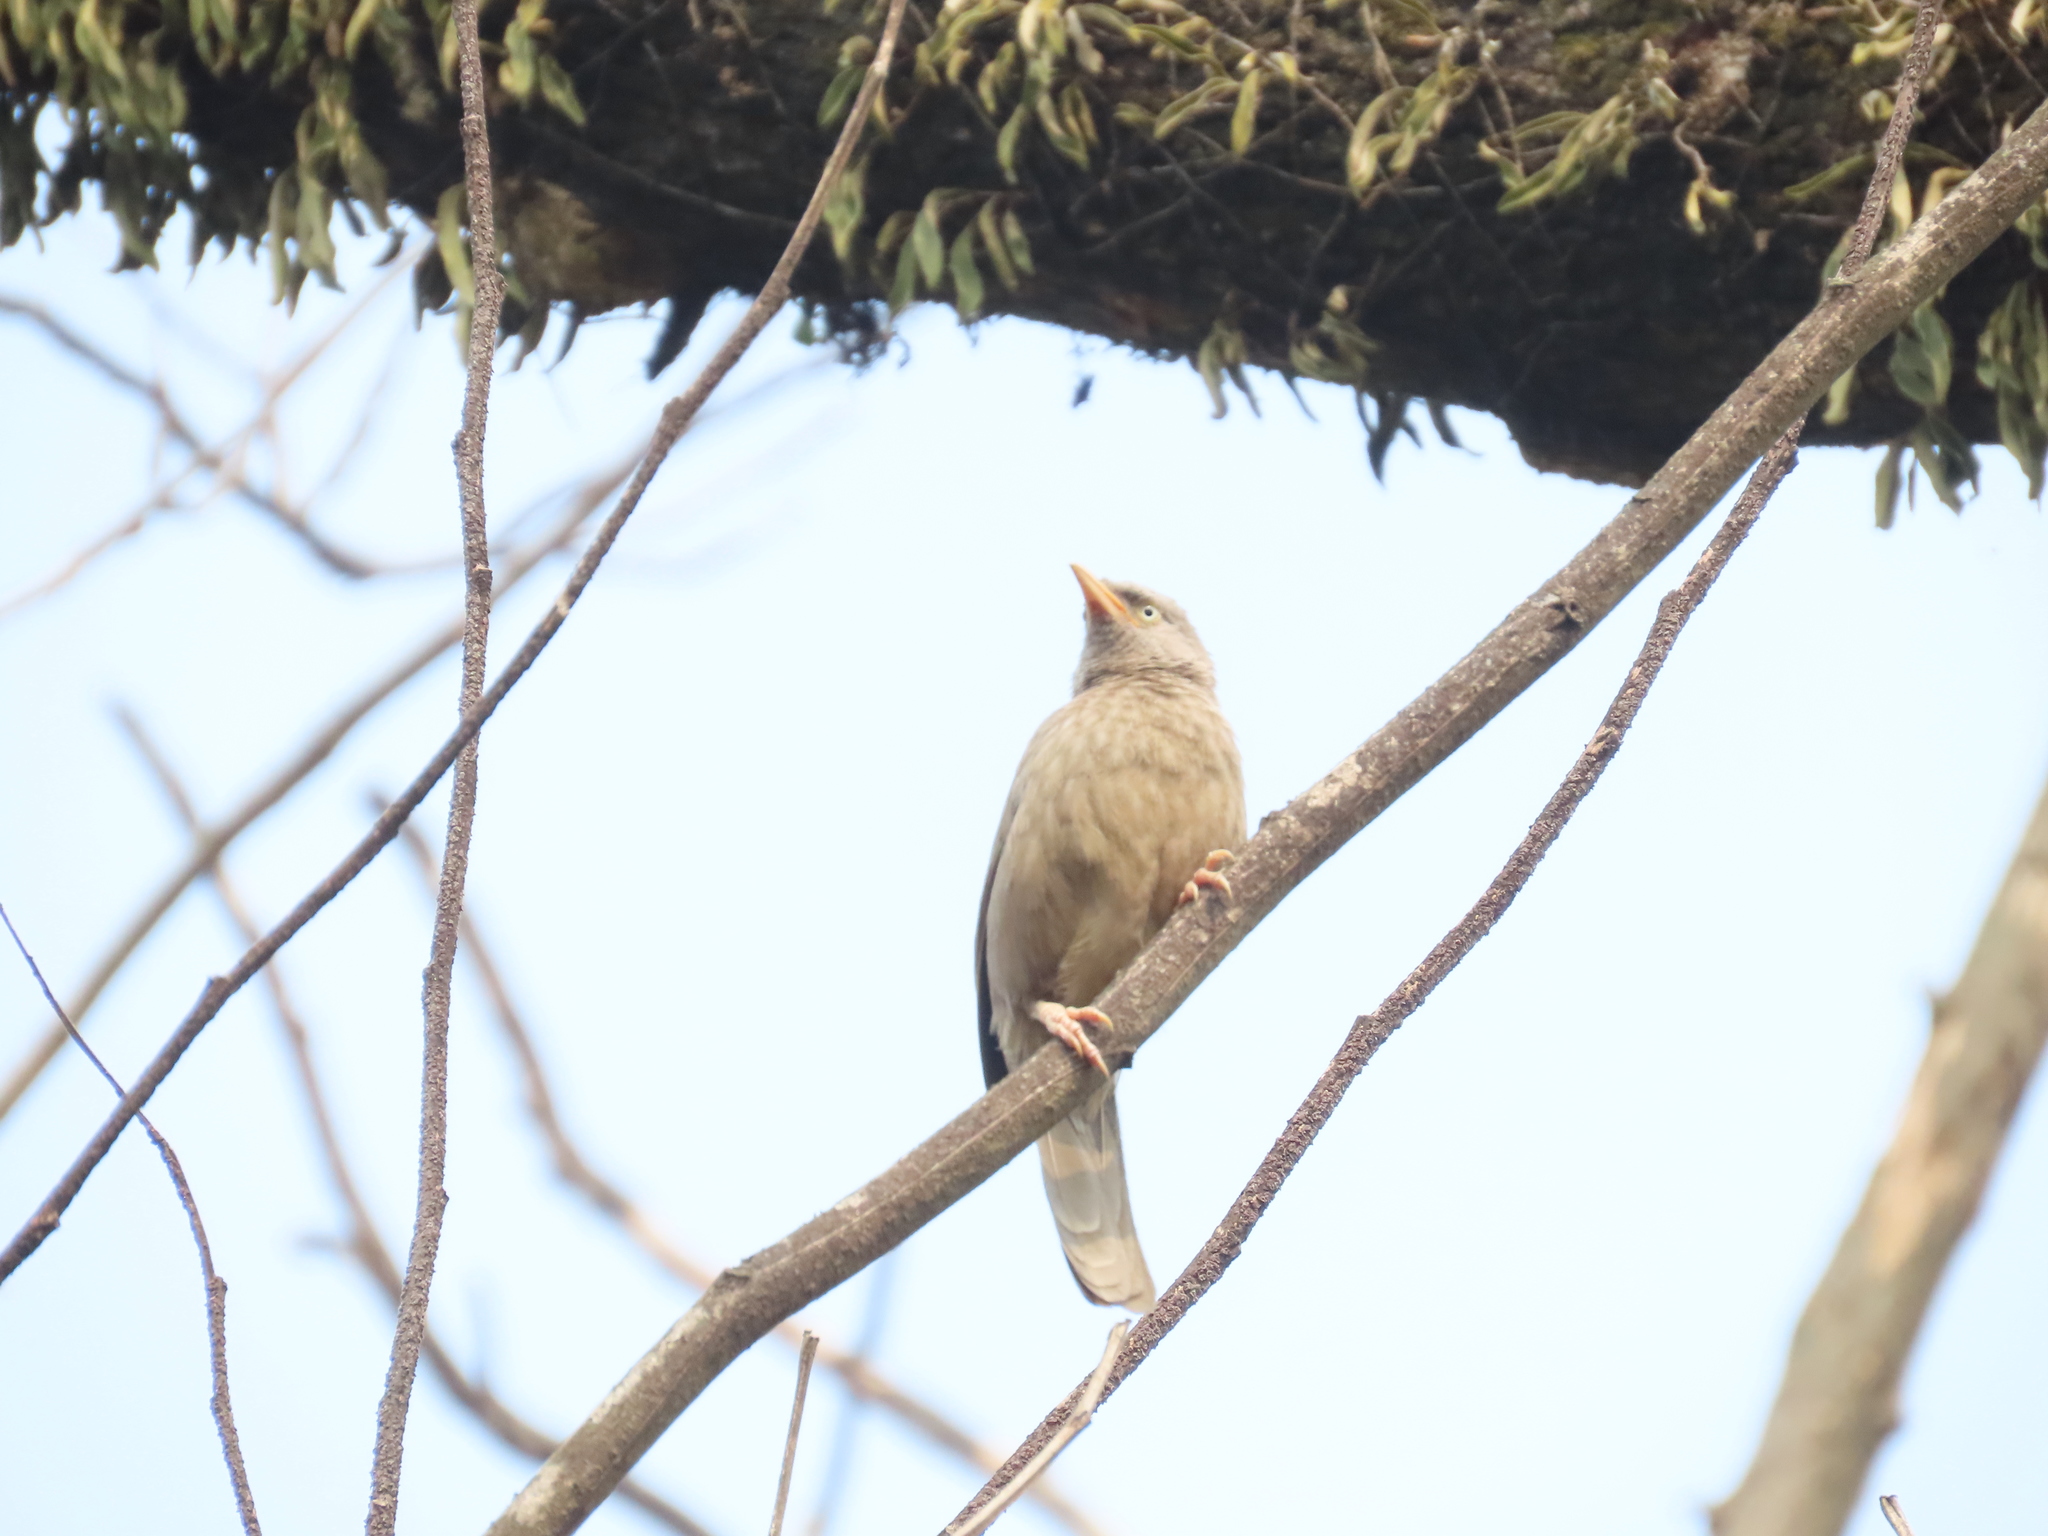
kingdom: Animalia
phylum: Chordata
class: Aves
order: Passeriformes
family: Leiothrichidae
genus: Turdoides
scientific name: Turdoides striata
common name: Jungle babbler
